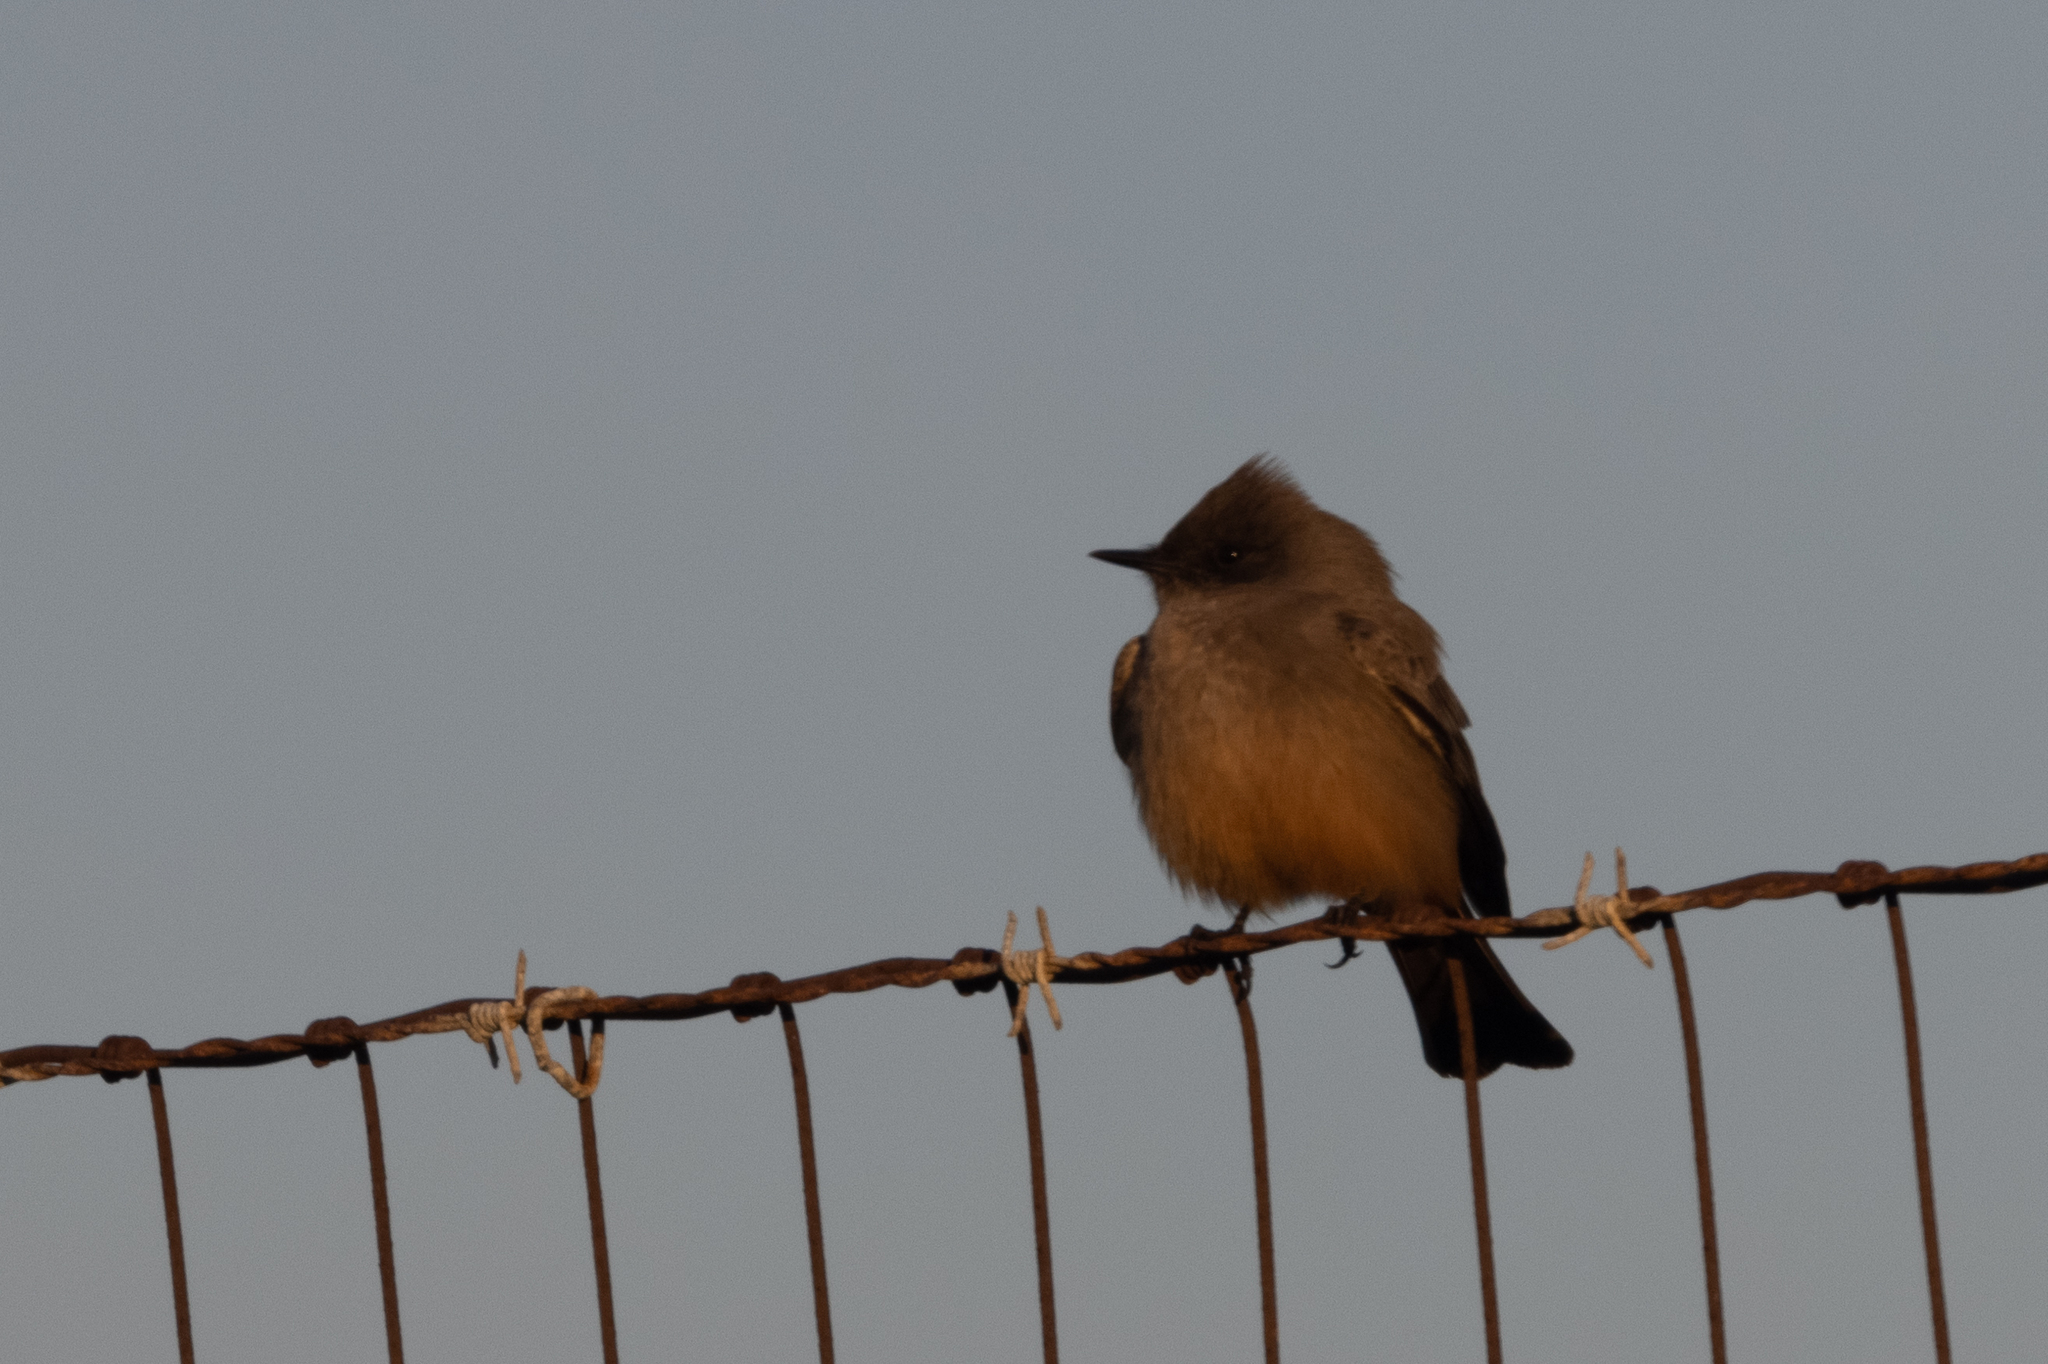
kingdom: Animalia
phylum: Chordata
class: Aves
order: Passeriformes
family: Tyrannidae
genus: Sayornis
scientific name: Sayornis saya
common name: Say's phoebe
